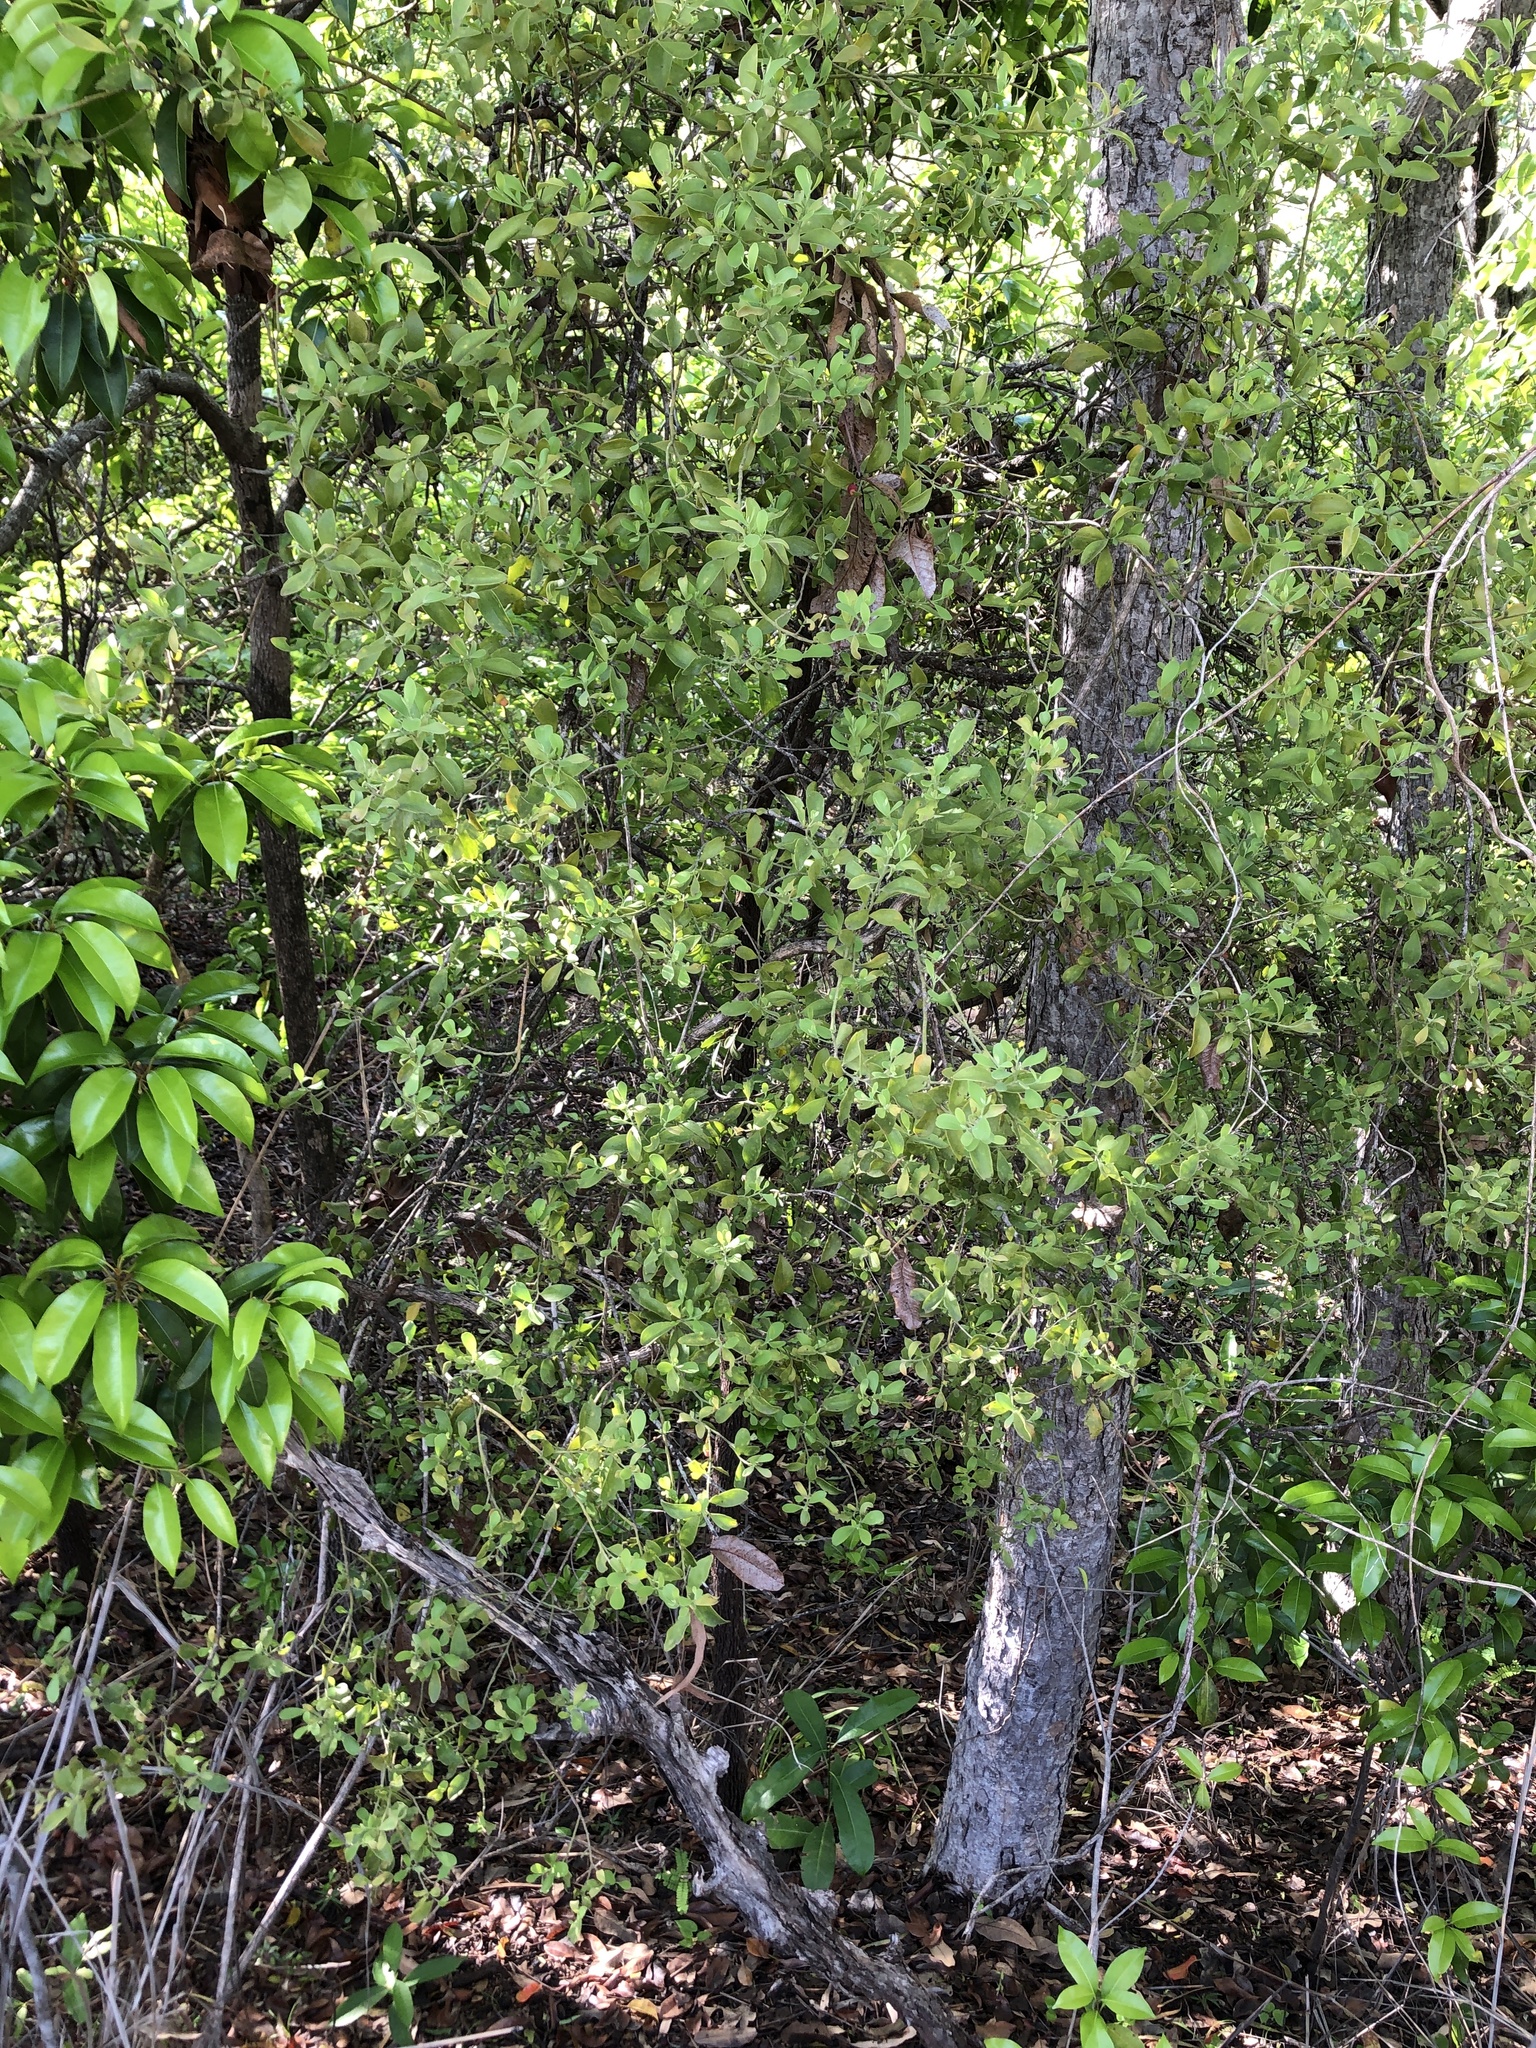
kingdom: Plantae
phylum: Tracheophyta
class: Magnoliopsida
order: Santalales
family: Santalaceae
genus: Exocarpos
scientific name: Exocarpos latifolius
